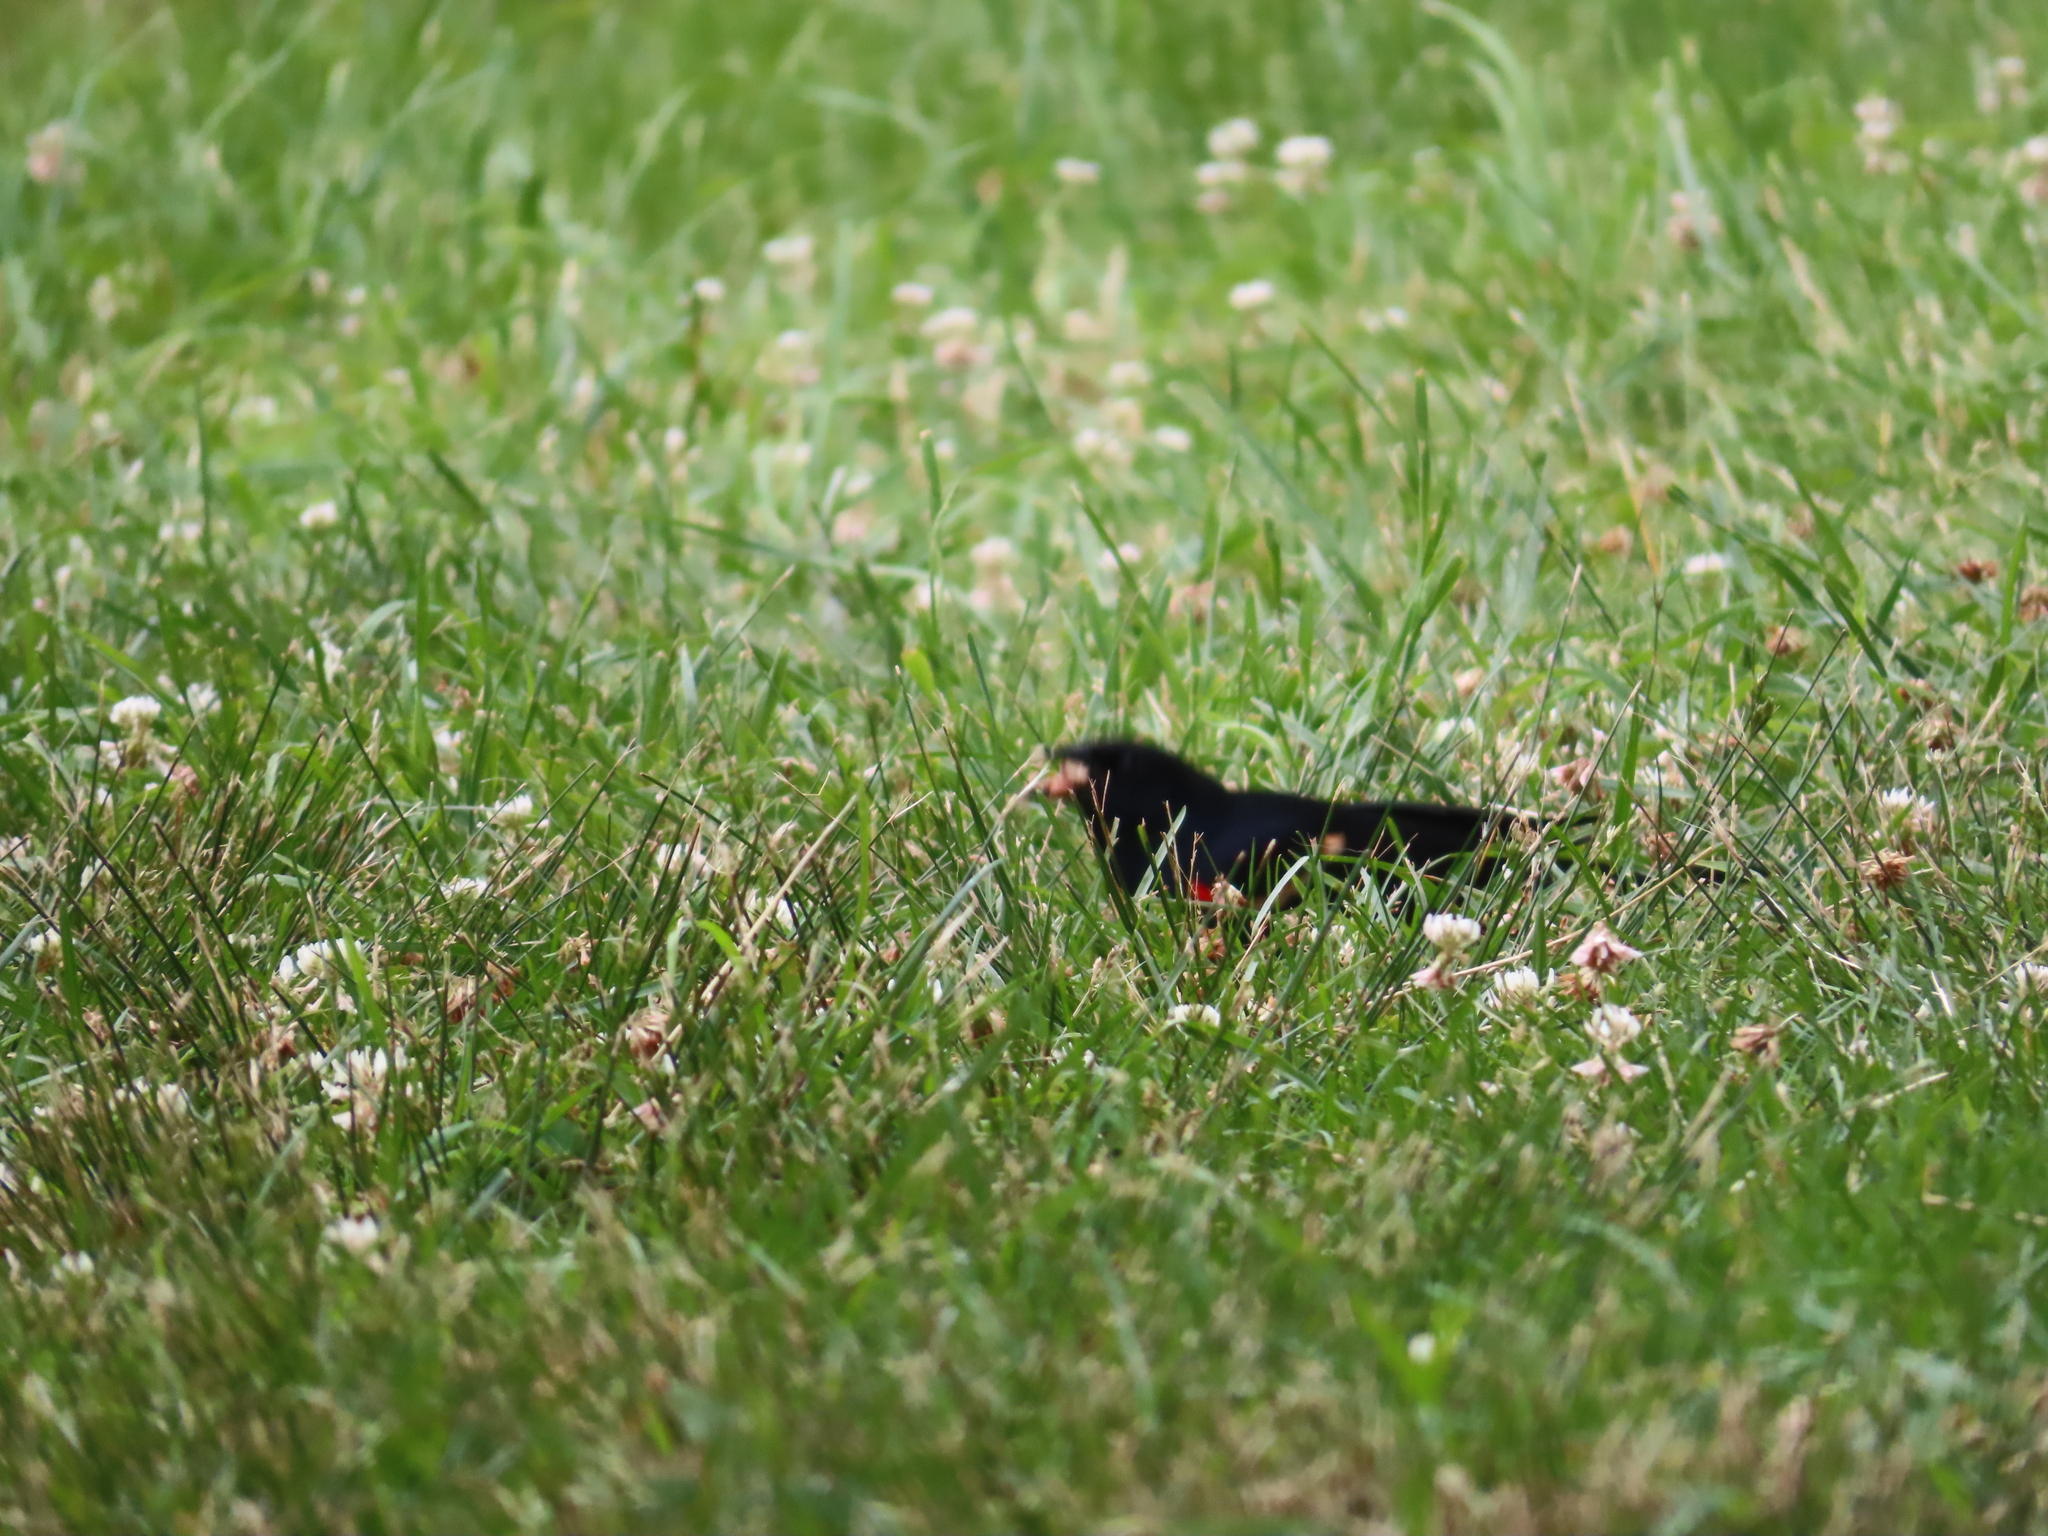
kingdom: Animalia
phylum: Chordata
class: Aves
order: Passeriformes
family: Icteridae
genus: Agelaius
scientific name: Agelaius phoeniceus
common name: Red-winged blackbird
